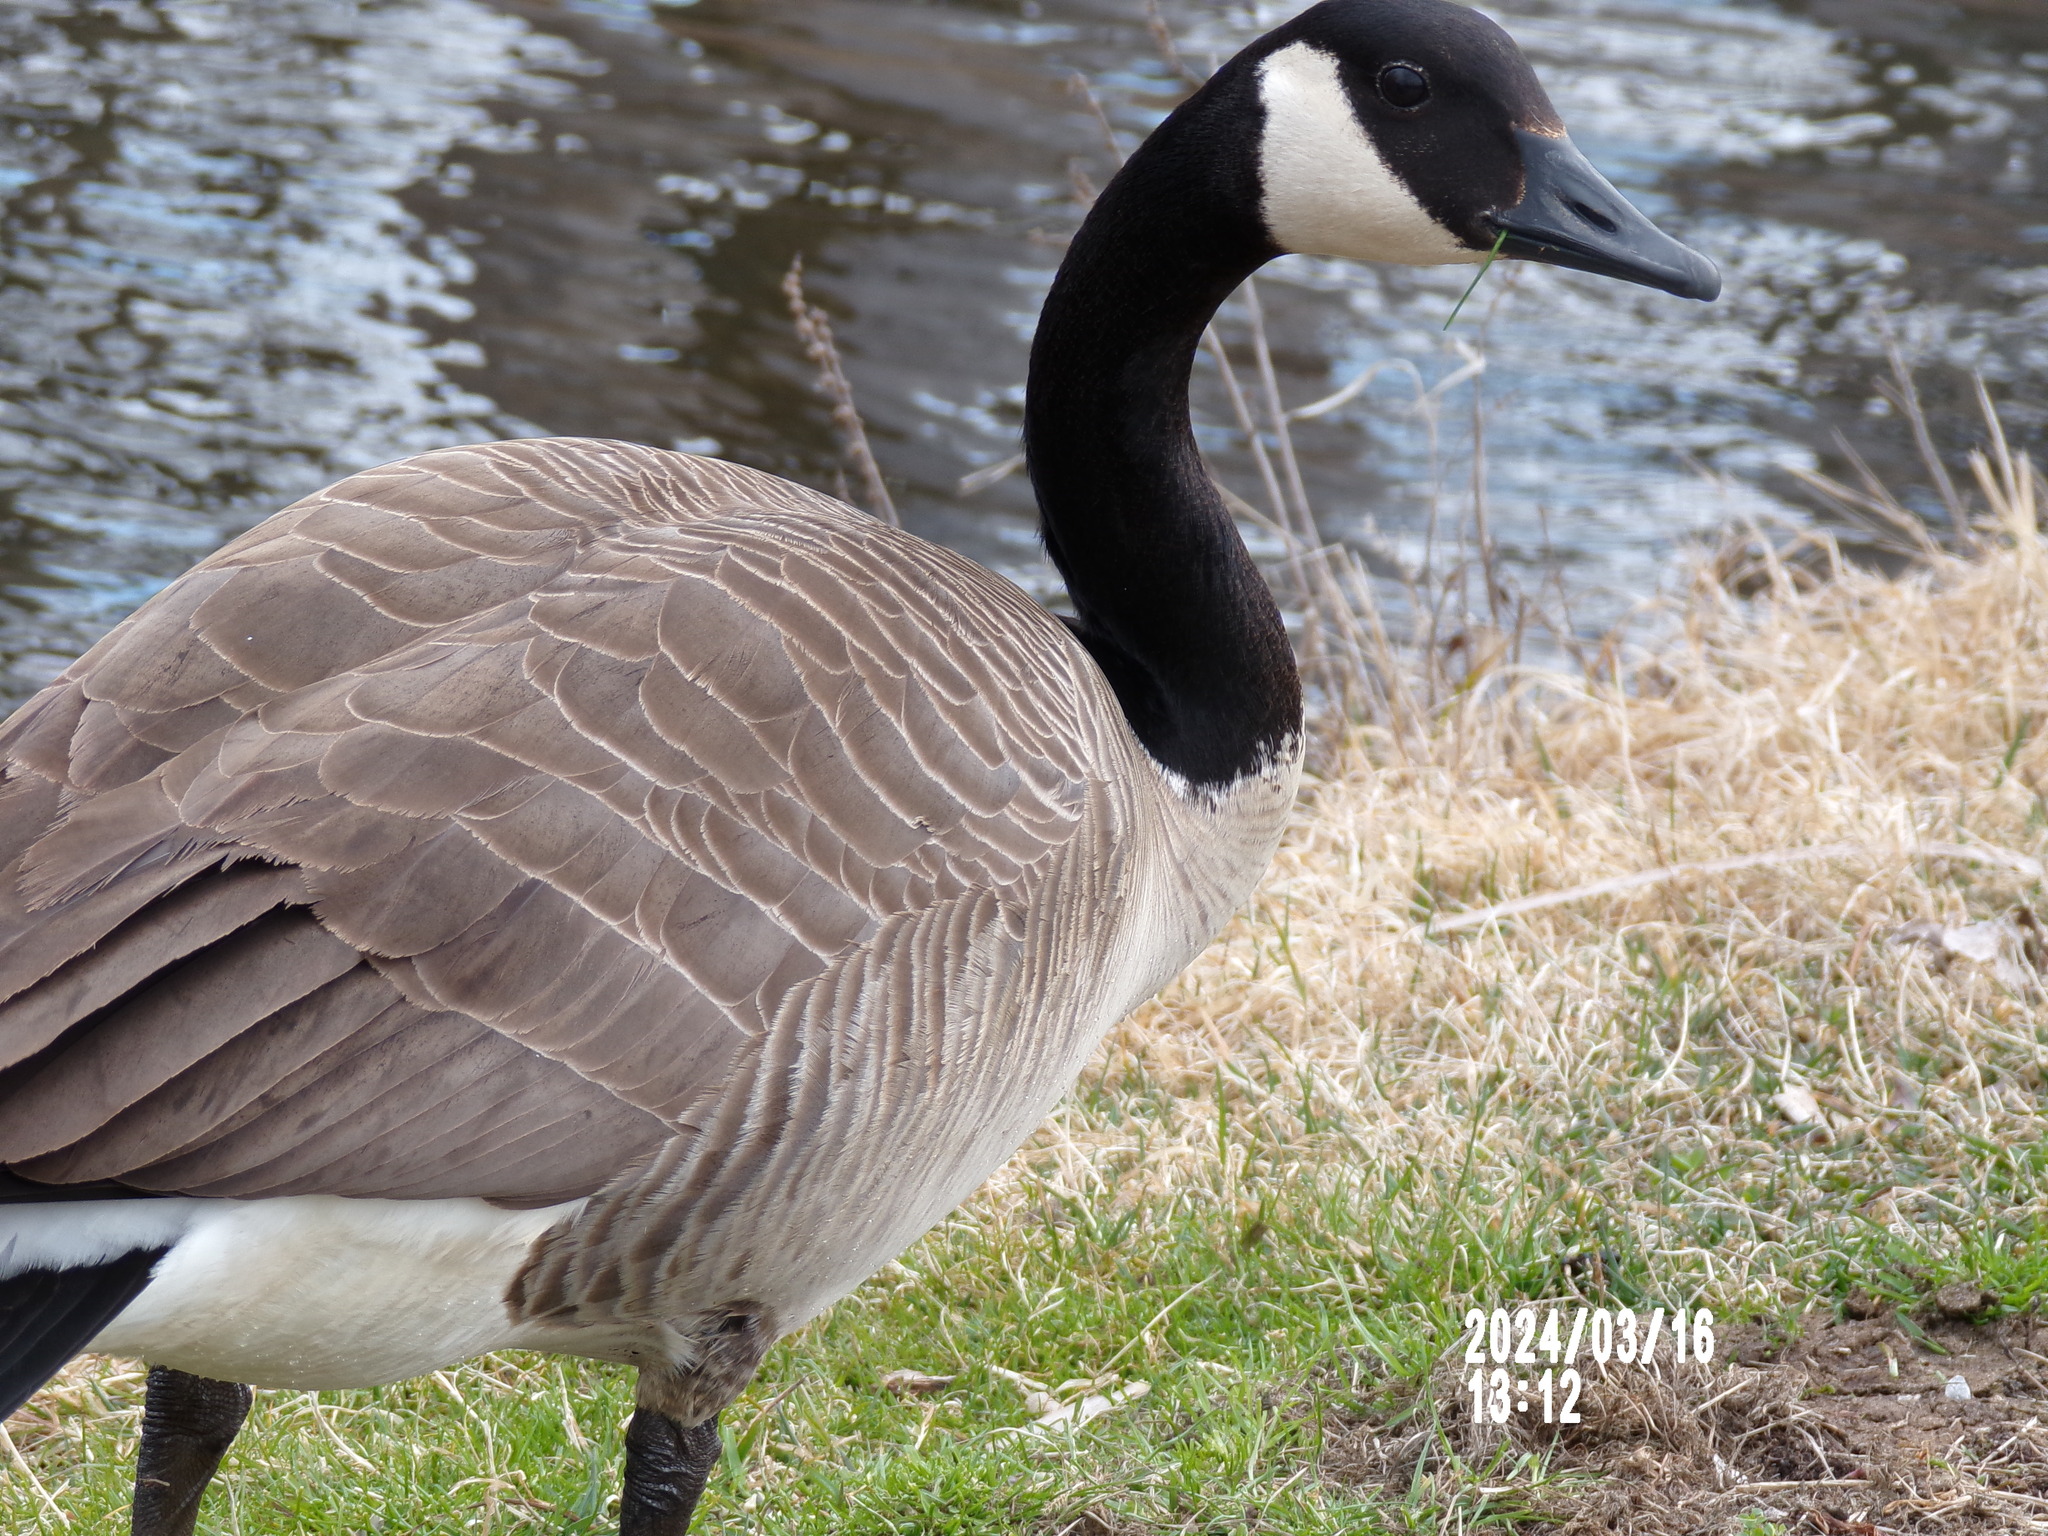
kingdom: Animalia
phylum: Chordata
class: Aves
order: Anseriformes
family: Anatidae
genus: Branta
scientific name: Branta canadensis
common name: Canada goose
